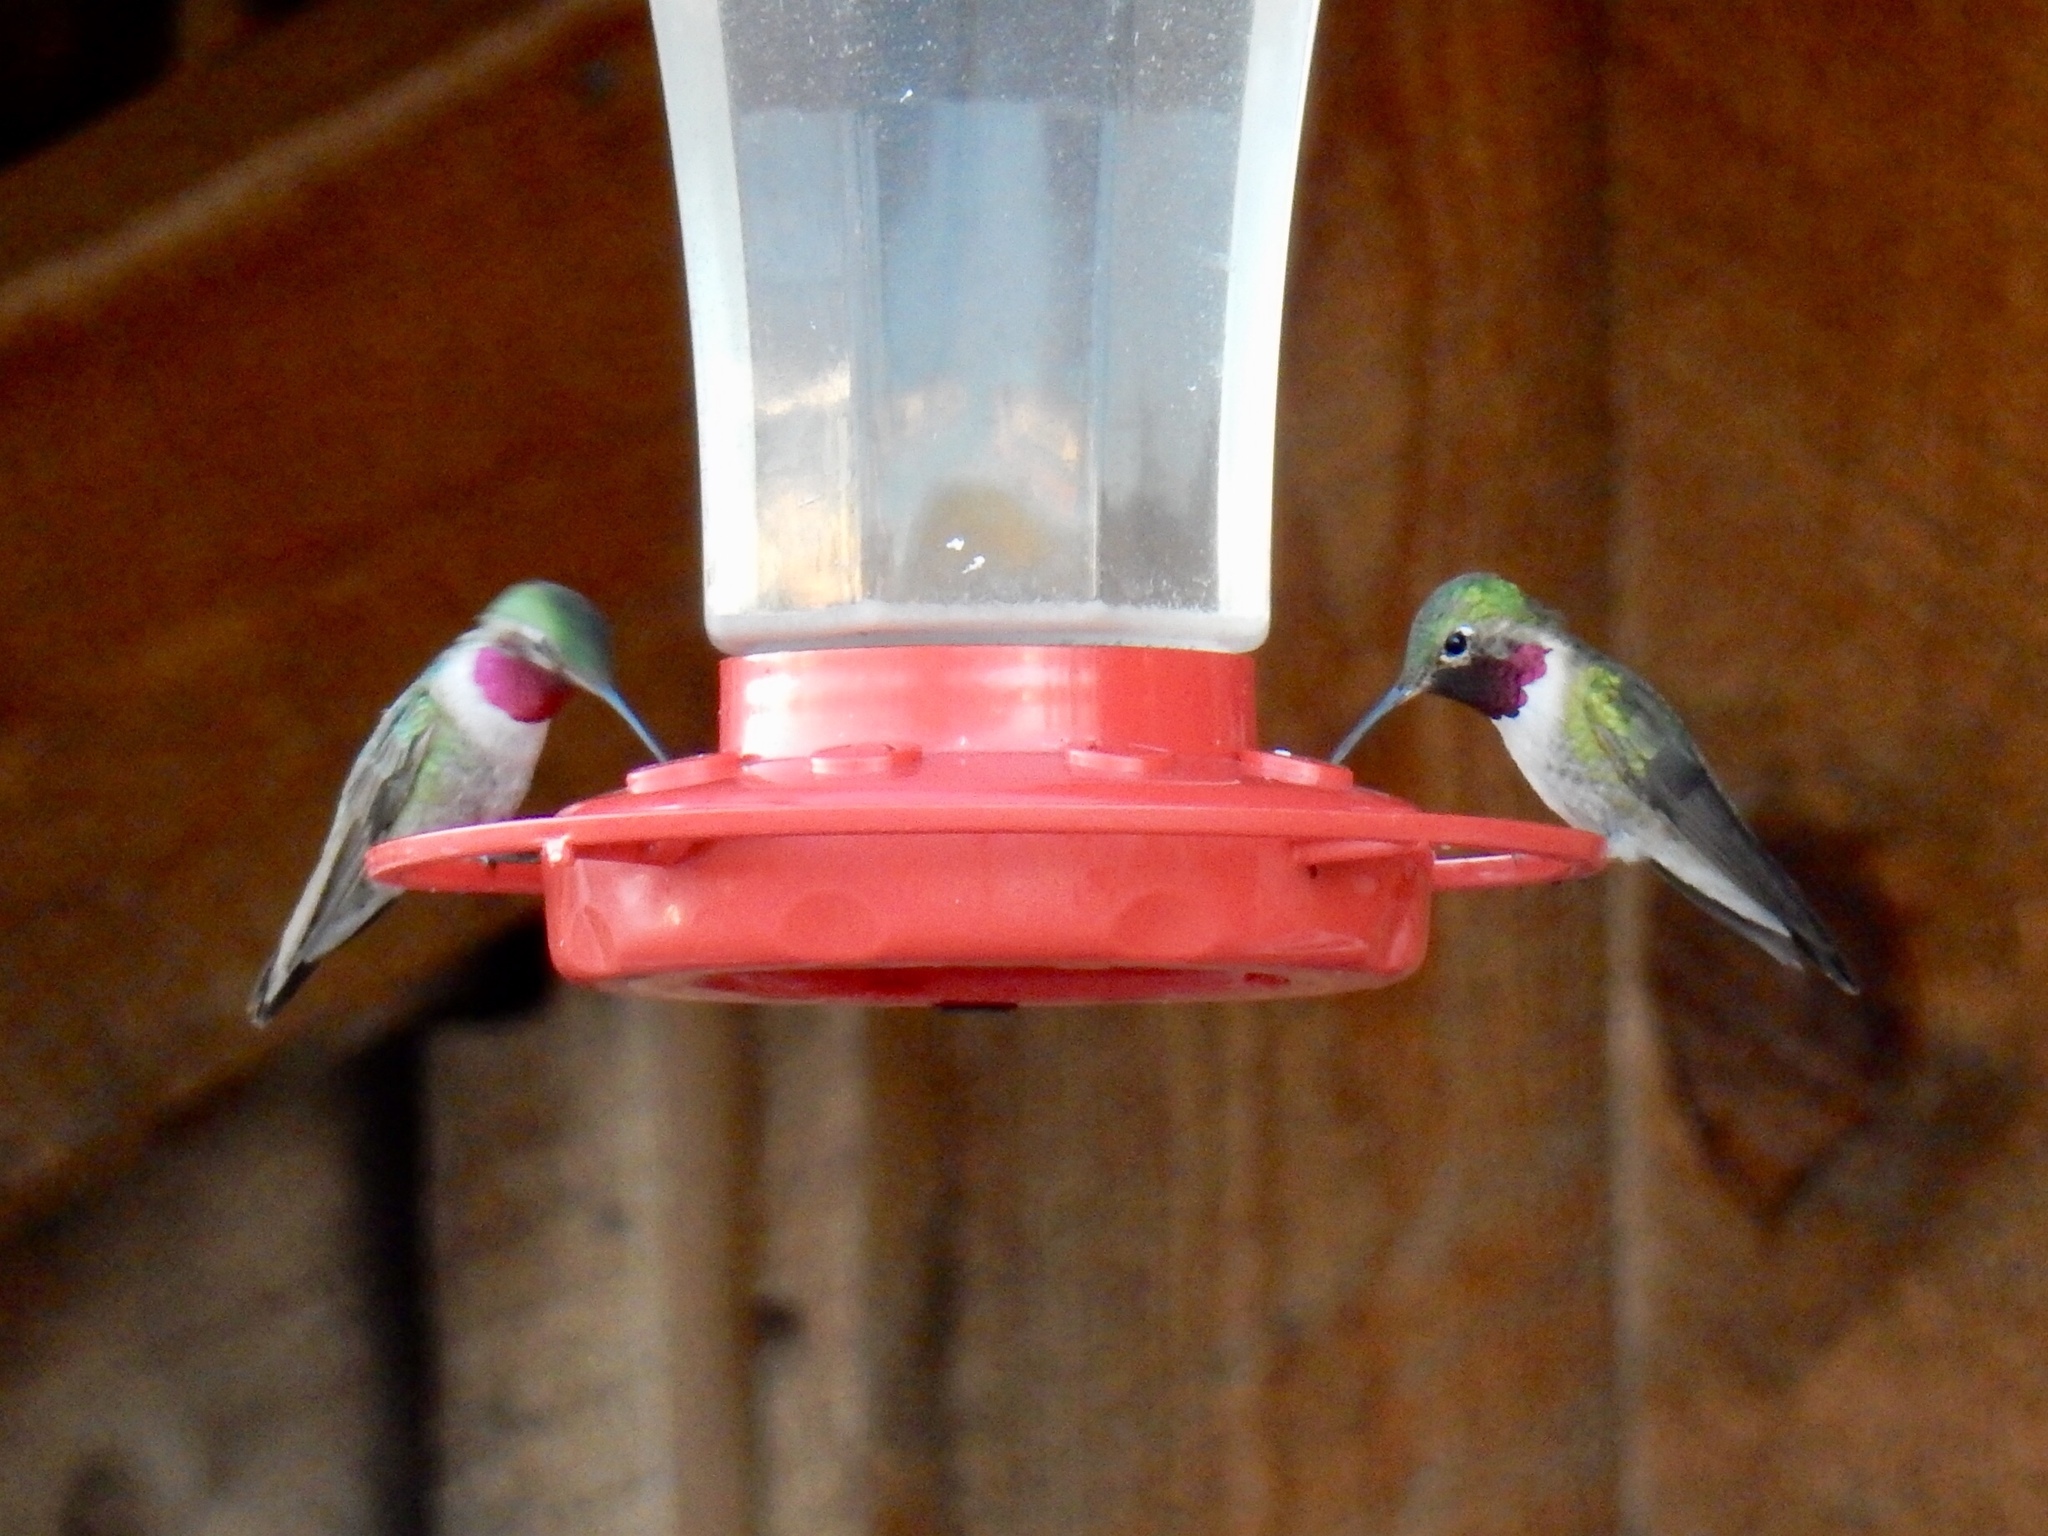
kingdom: Animalia
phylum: Chordata
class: Aves
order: Apodiformes
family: Trochilidae
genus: Selasphorus
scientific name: Selasphorus platycercus
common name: Broad-tailed hummingbird
